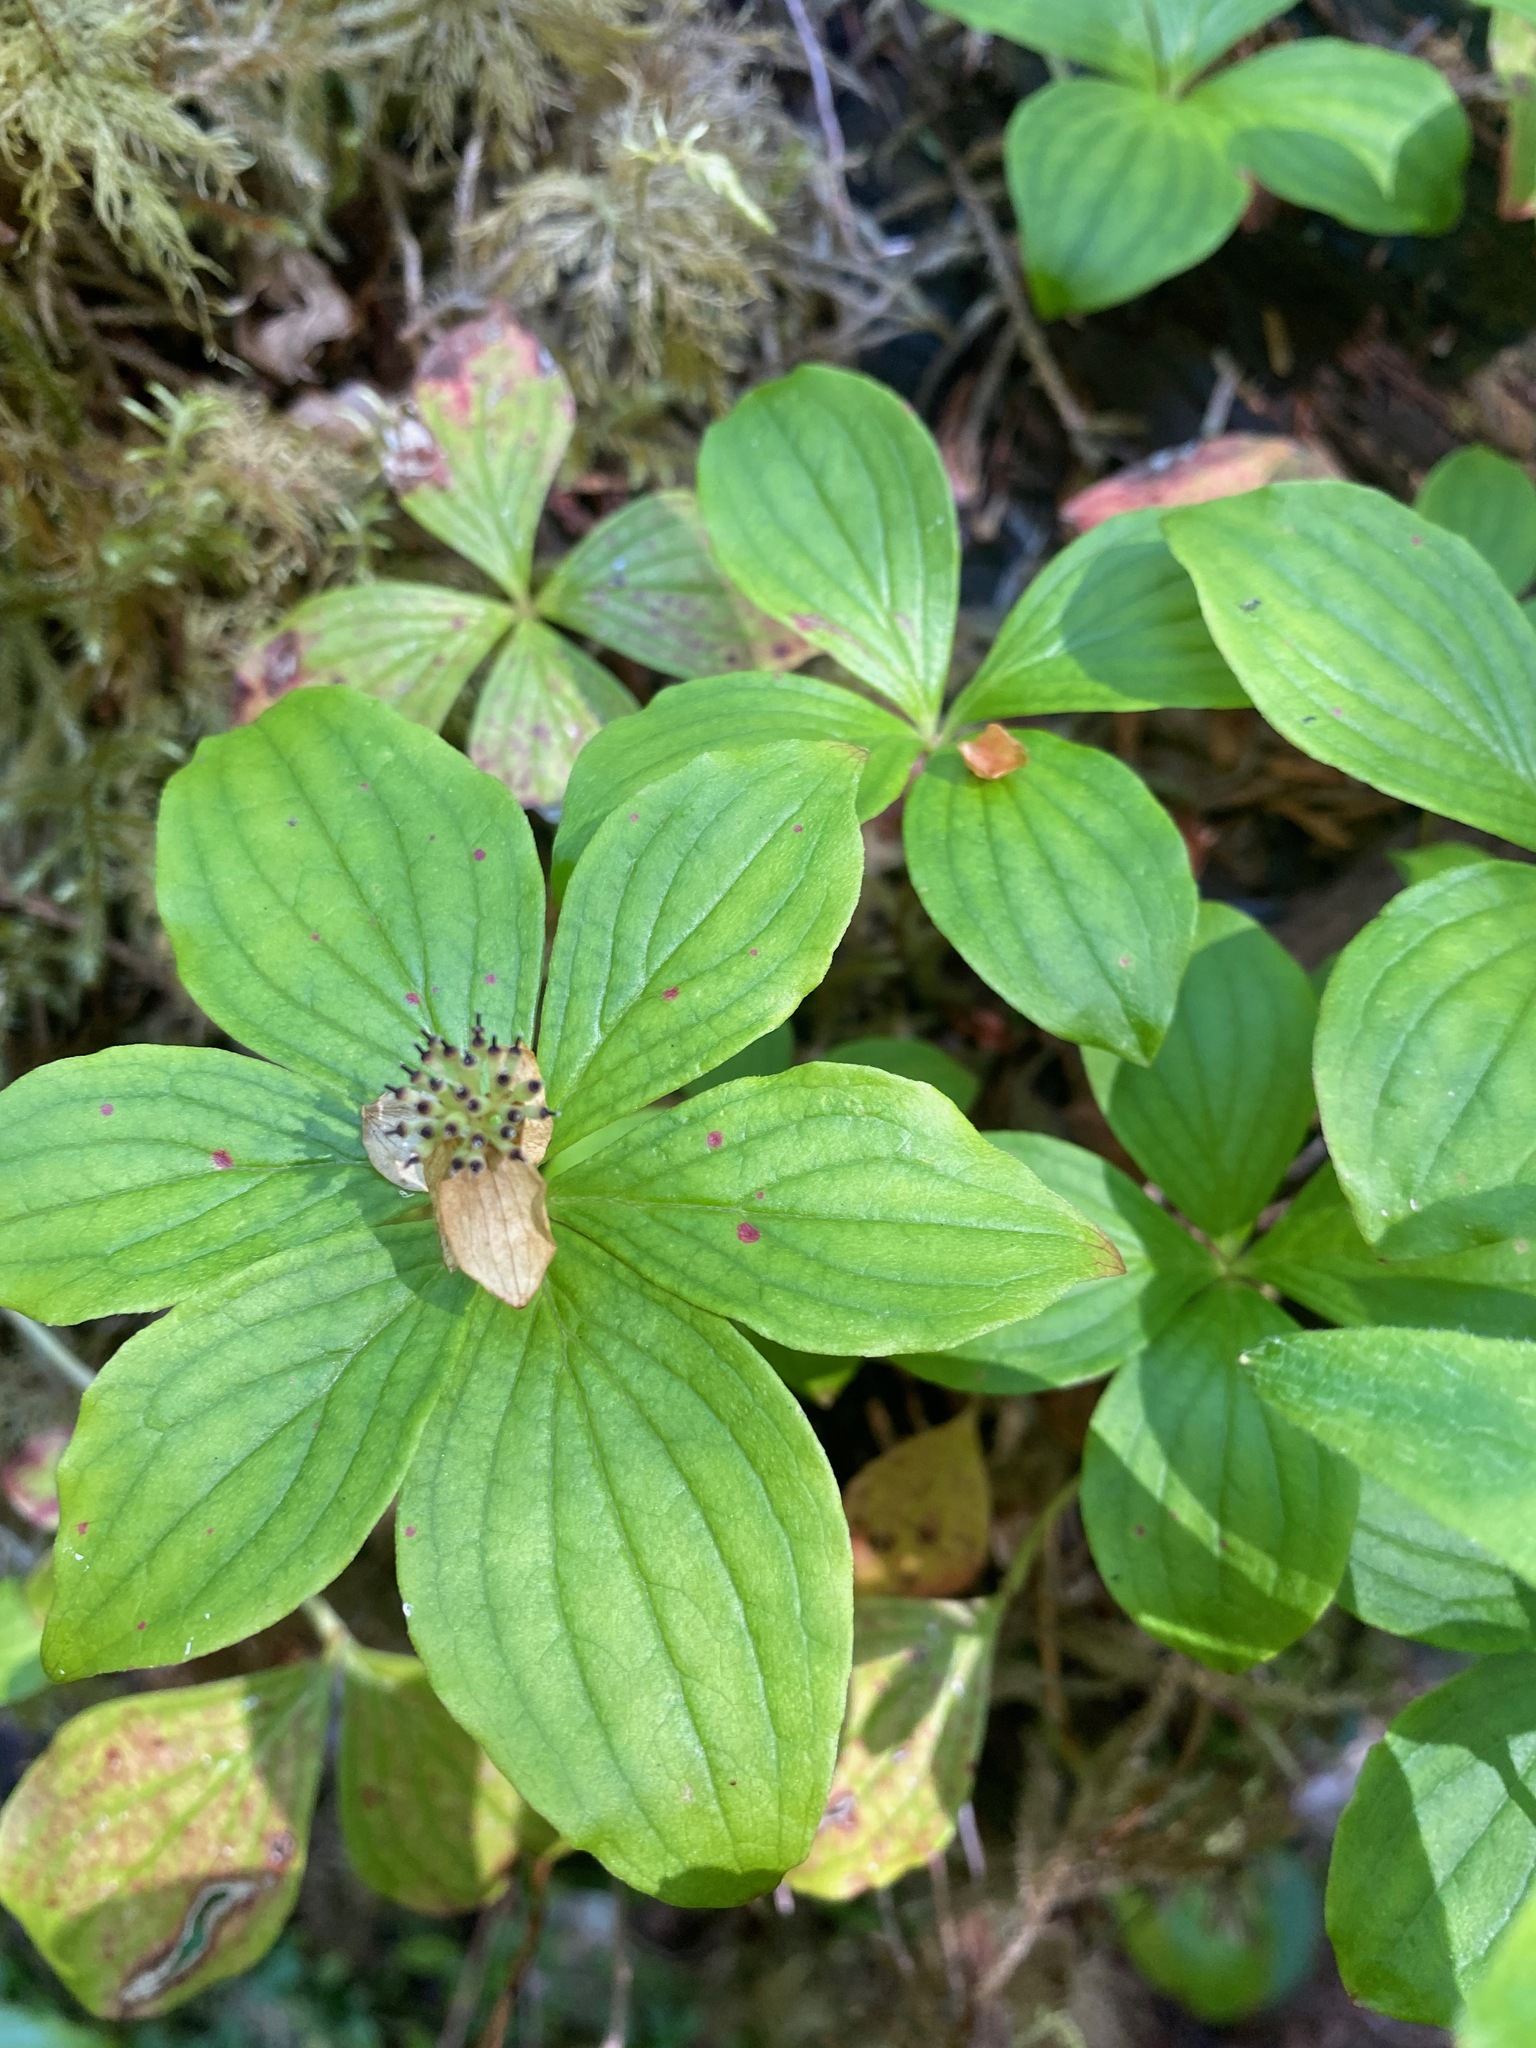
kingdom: Plantae
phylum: Tracheophyta
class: Magnoliopsida
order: Cornales
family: Cornaceae
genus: Cornus
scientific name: Cornus unalaschkensis
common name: Alaska bunchberry
